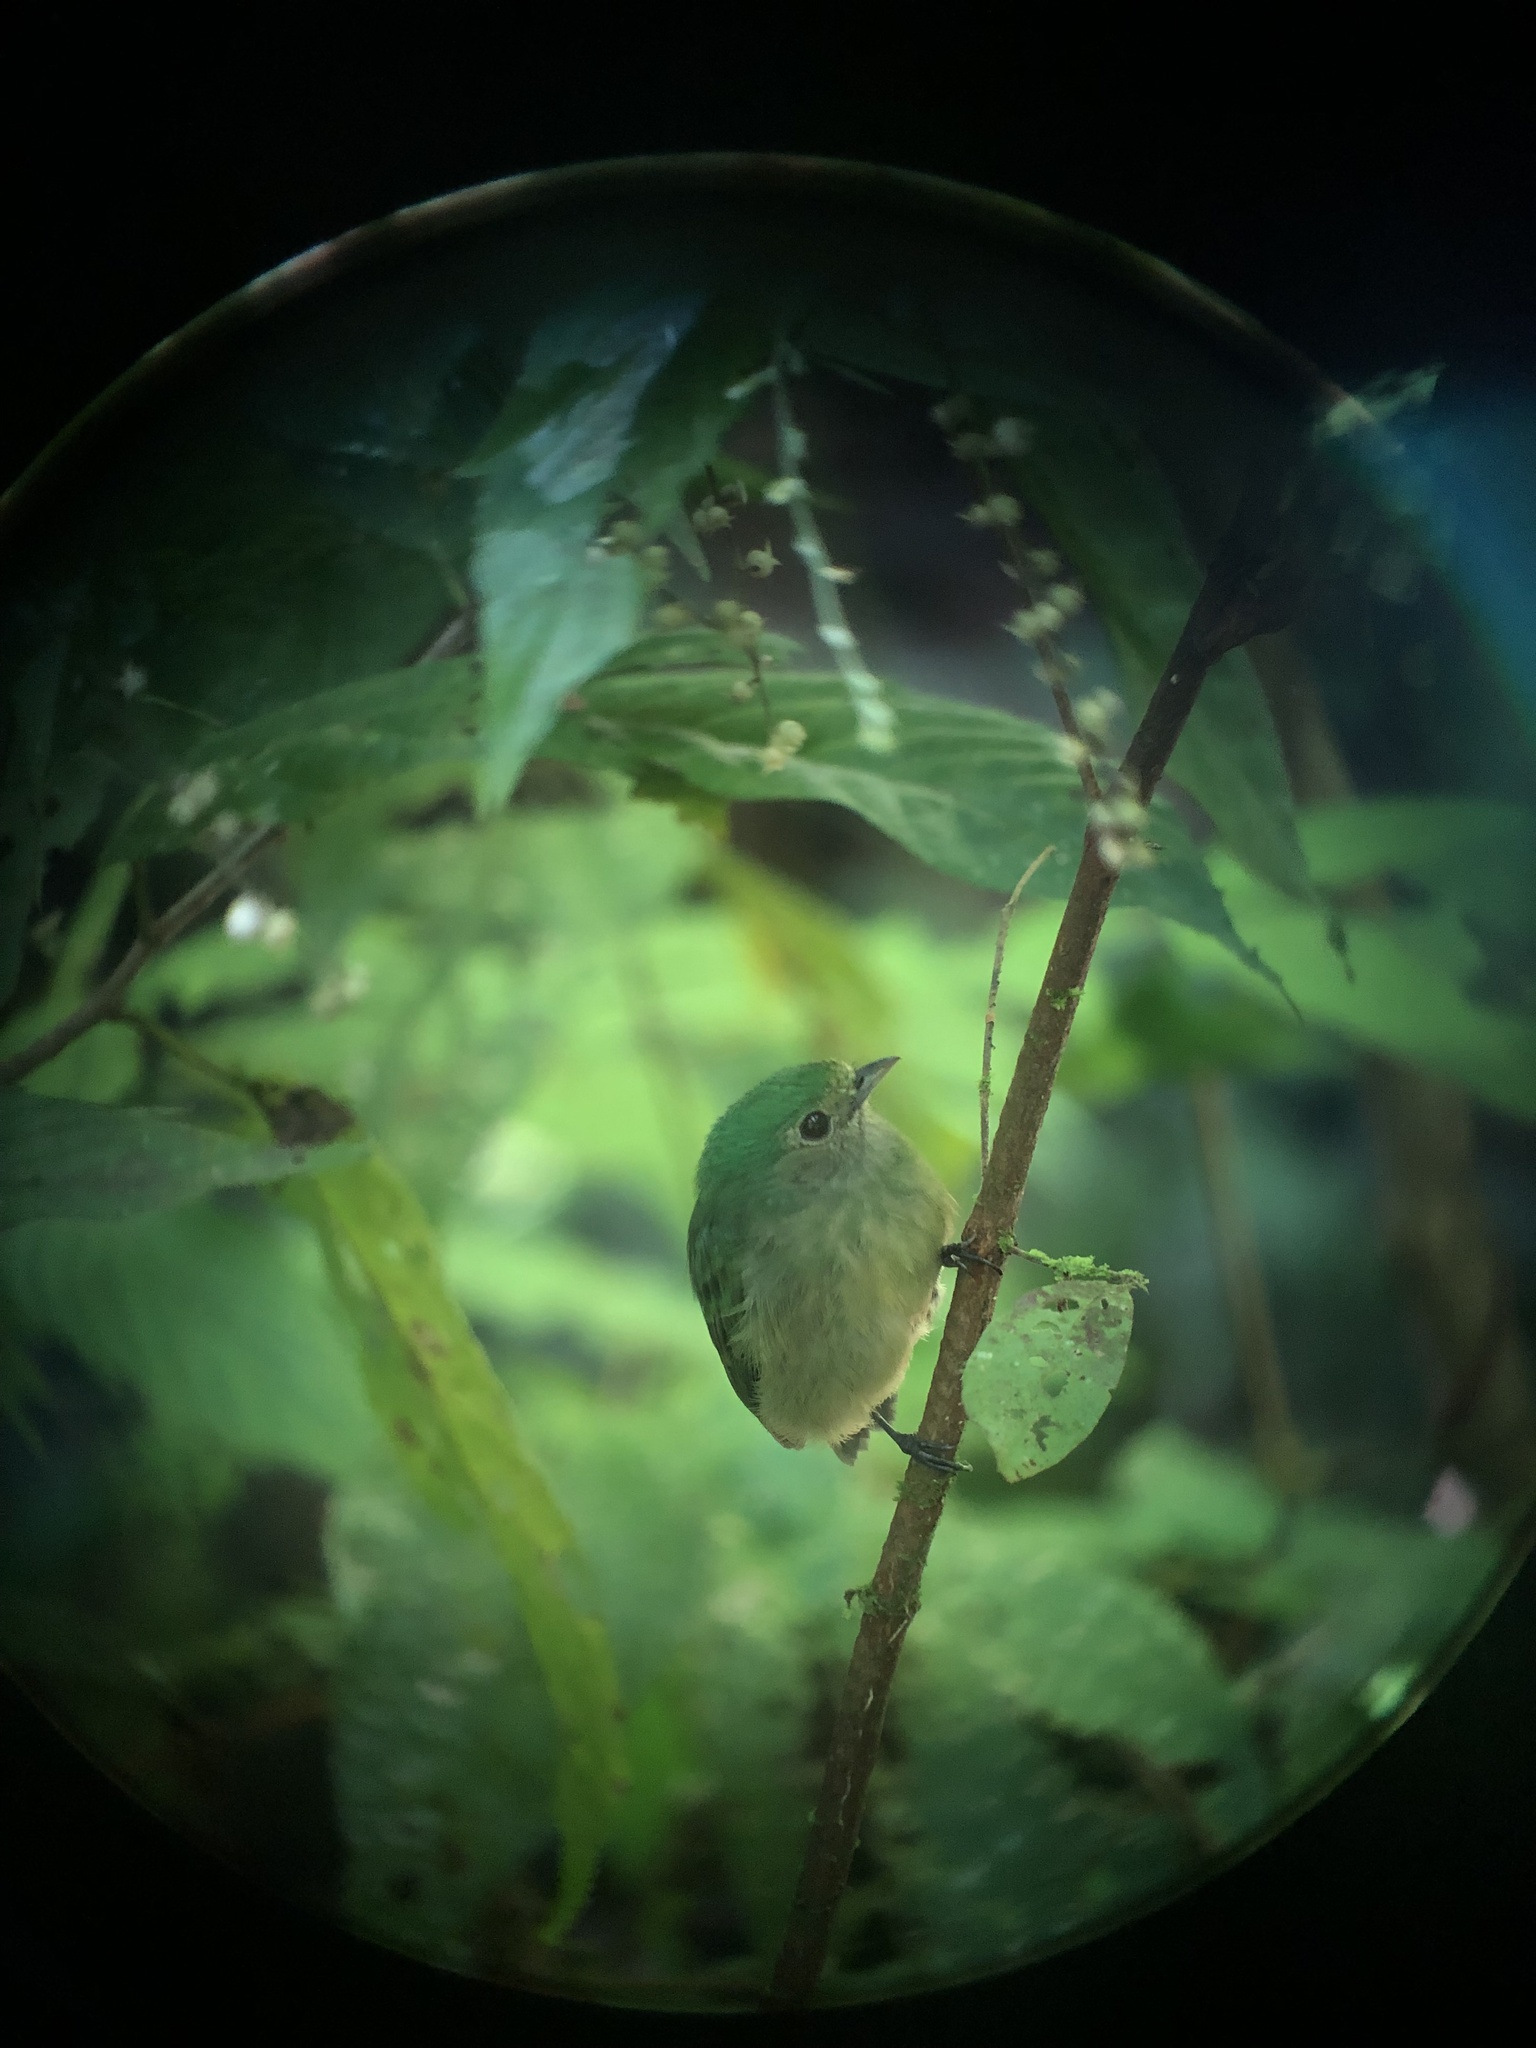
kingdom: Animalia
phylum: Chordata
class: Aves
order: Passeriformes
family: Pipridae
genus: Lepidothrix
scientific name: Lepidothrix coronata
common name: Blue-crowned manakin
